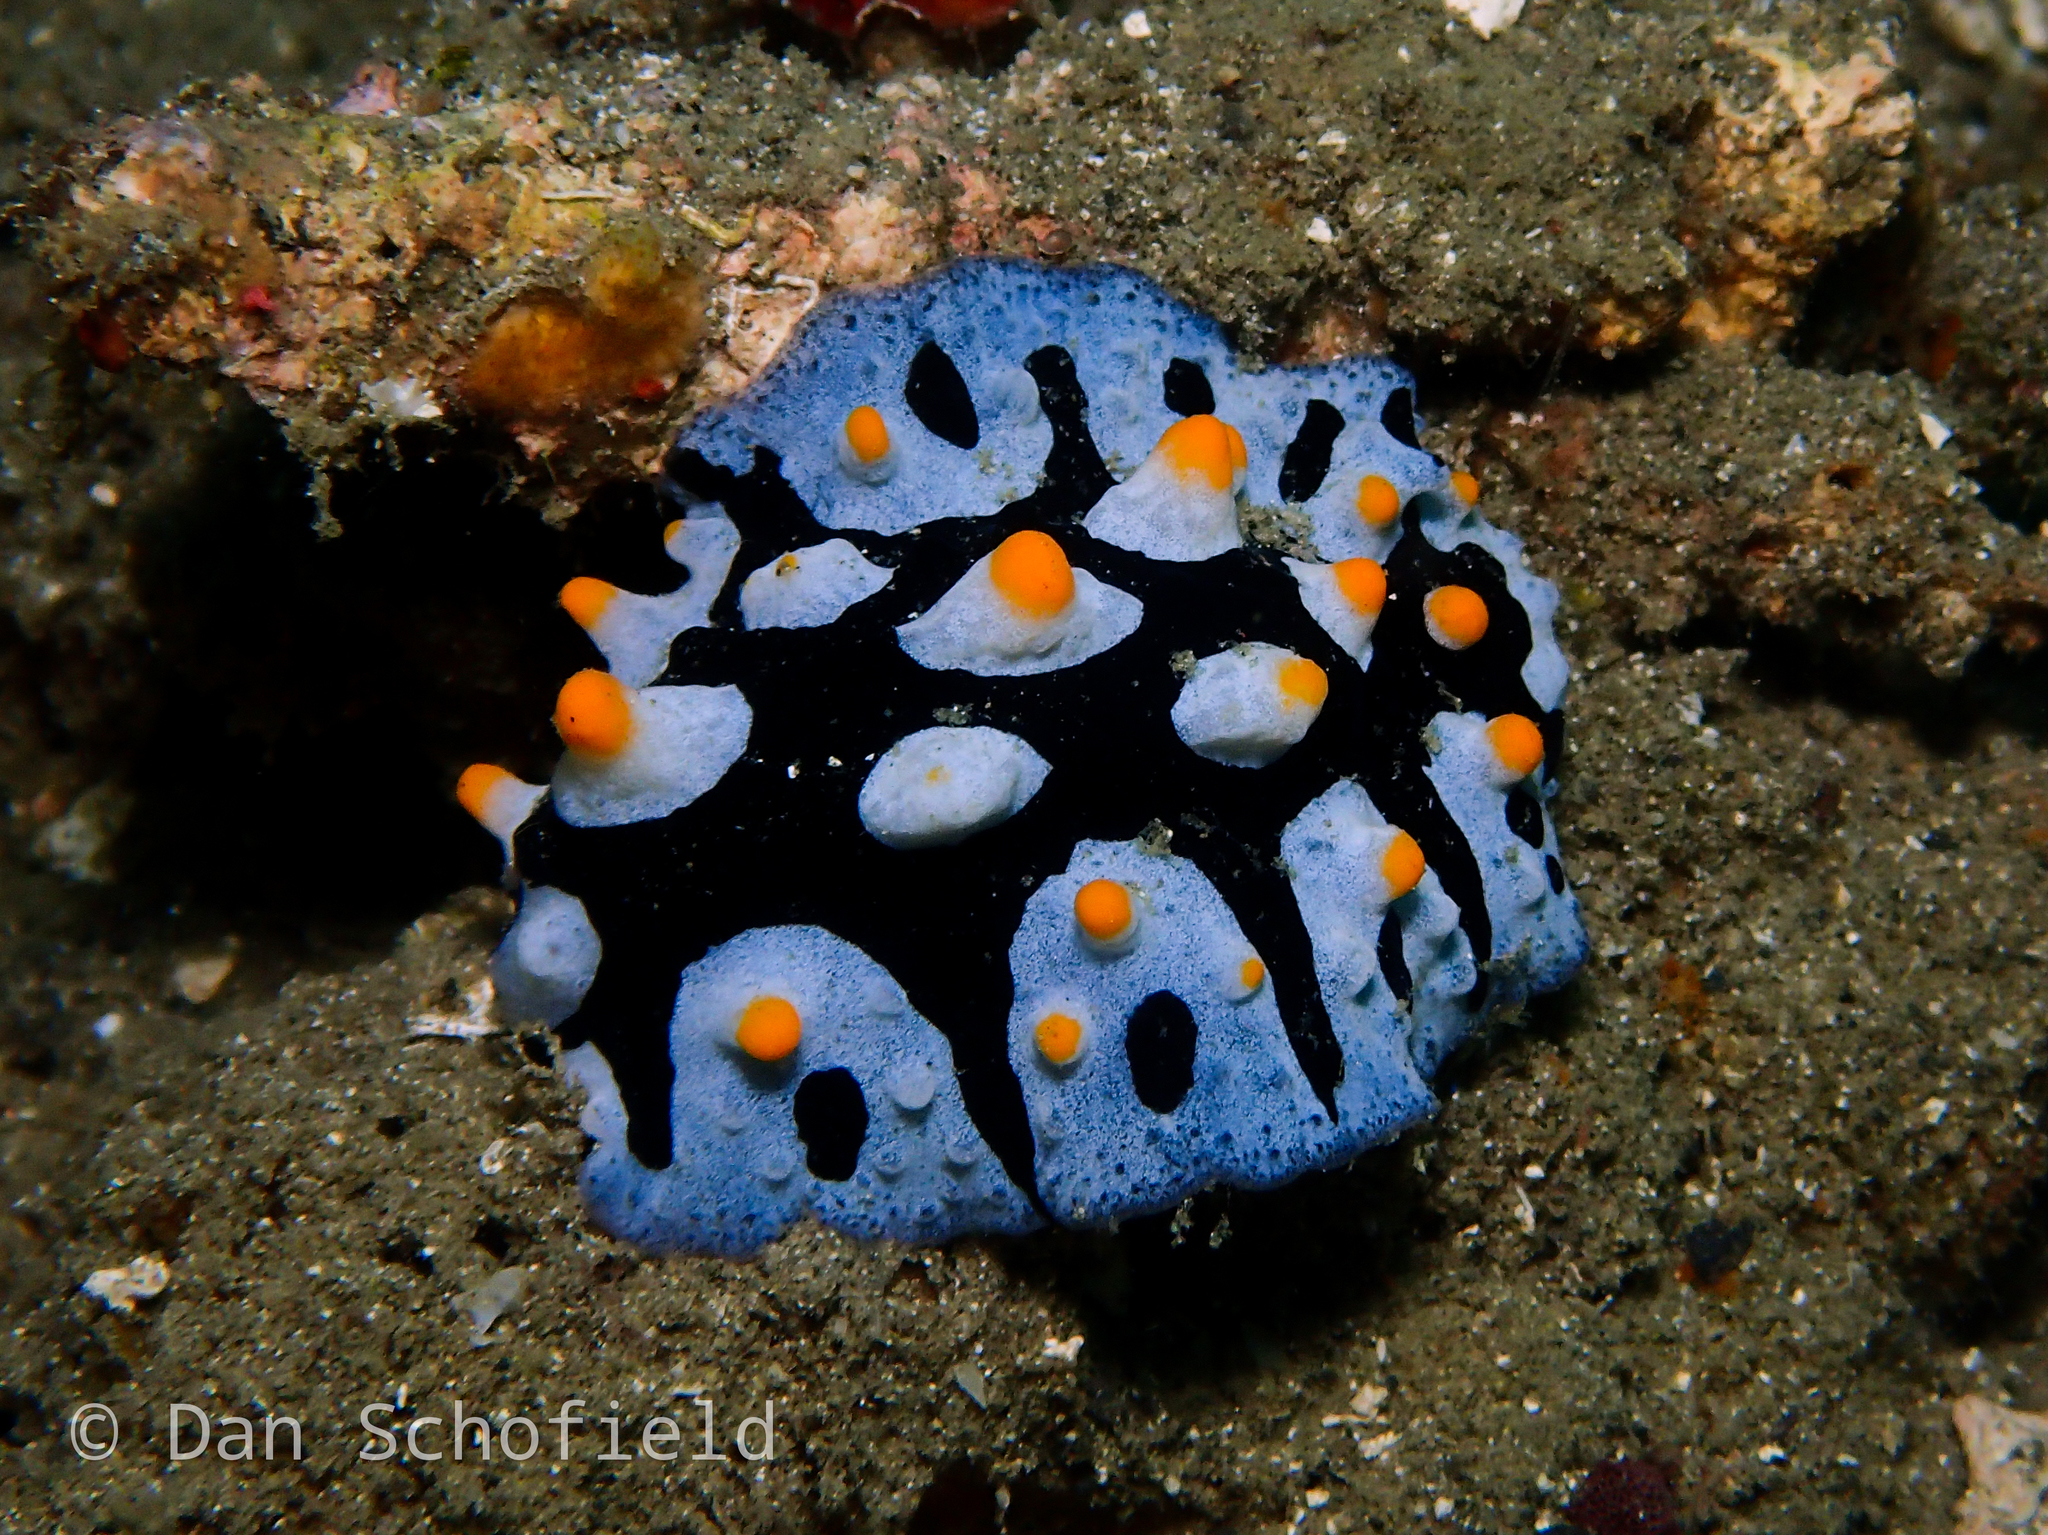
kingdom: Animalia
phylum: Mollusca
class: Gastropoda
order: Nudibranchia
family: Phyllidiidae
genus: Phyllidia
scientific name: Phyllidia picta
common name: Black-rayed phyllidia
